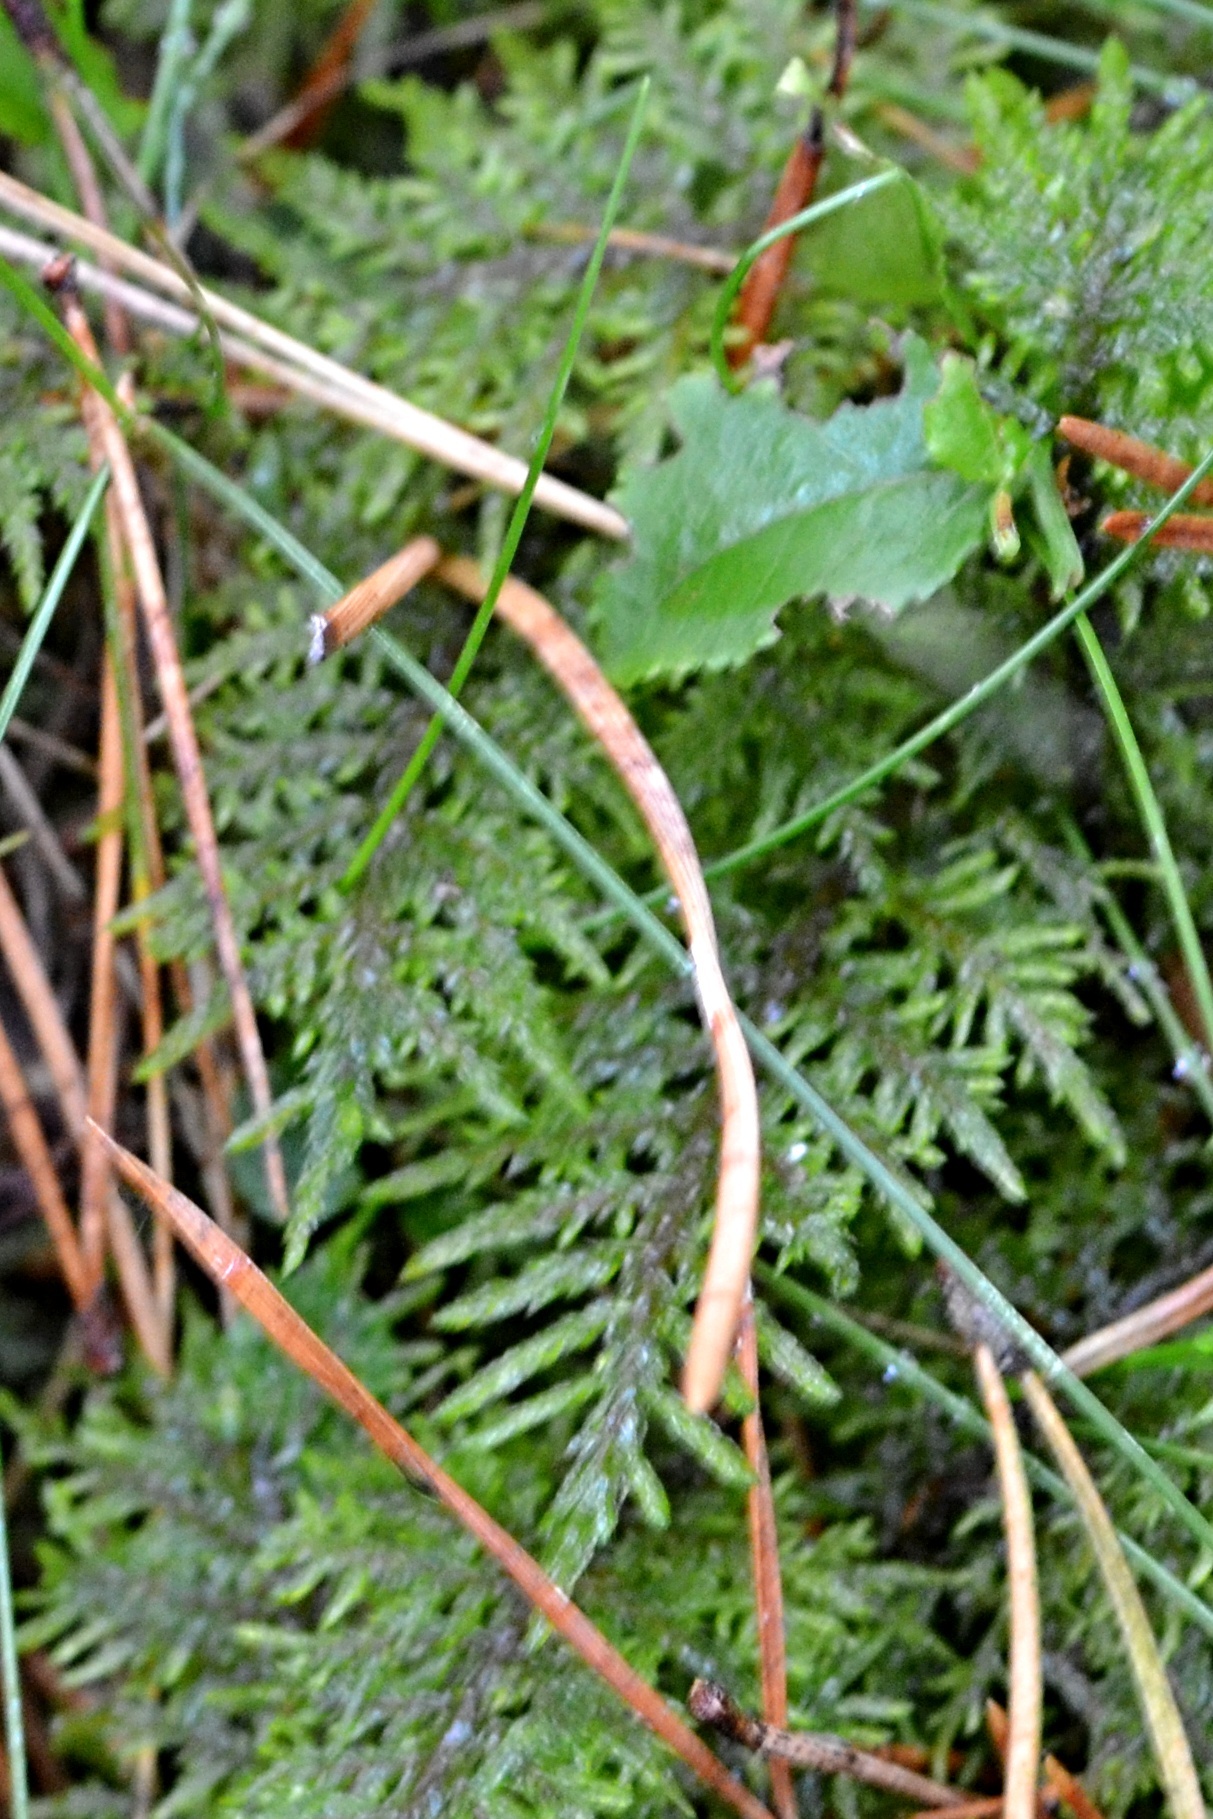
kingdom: Plantae
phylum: Bryophyta
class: Bryopsida
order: Hypnales
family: Hylocomiaceae
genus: Hylocomium
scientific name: Hylocomium splendens
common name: Stairstep moss
